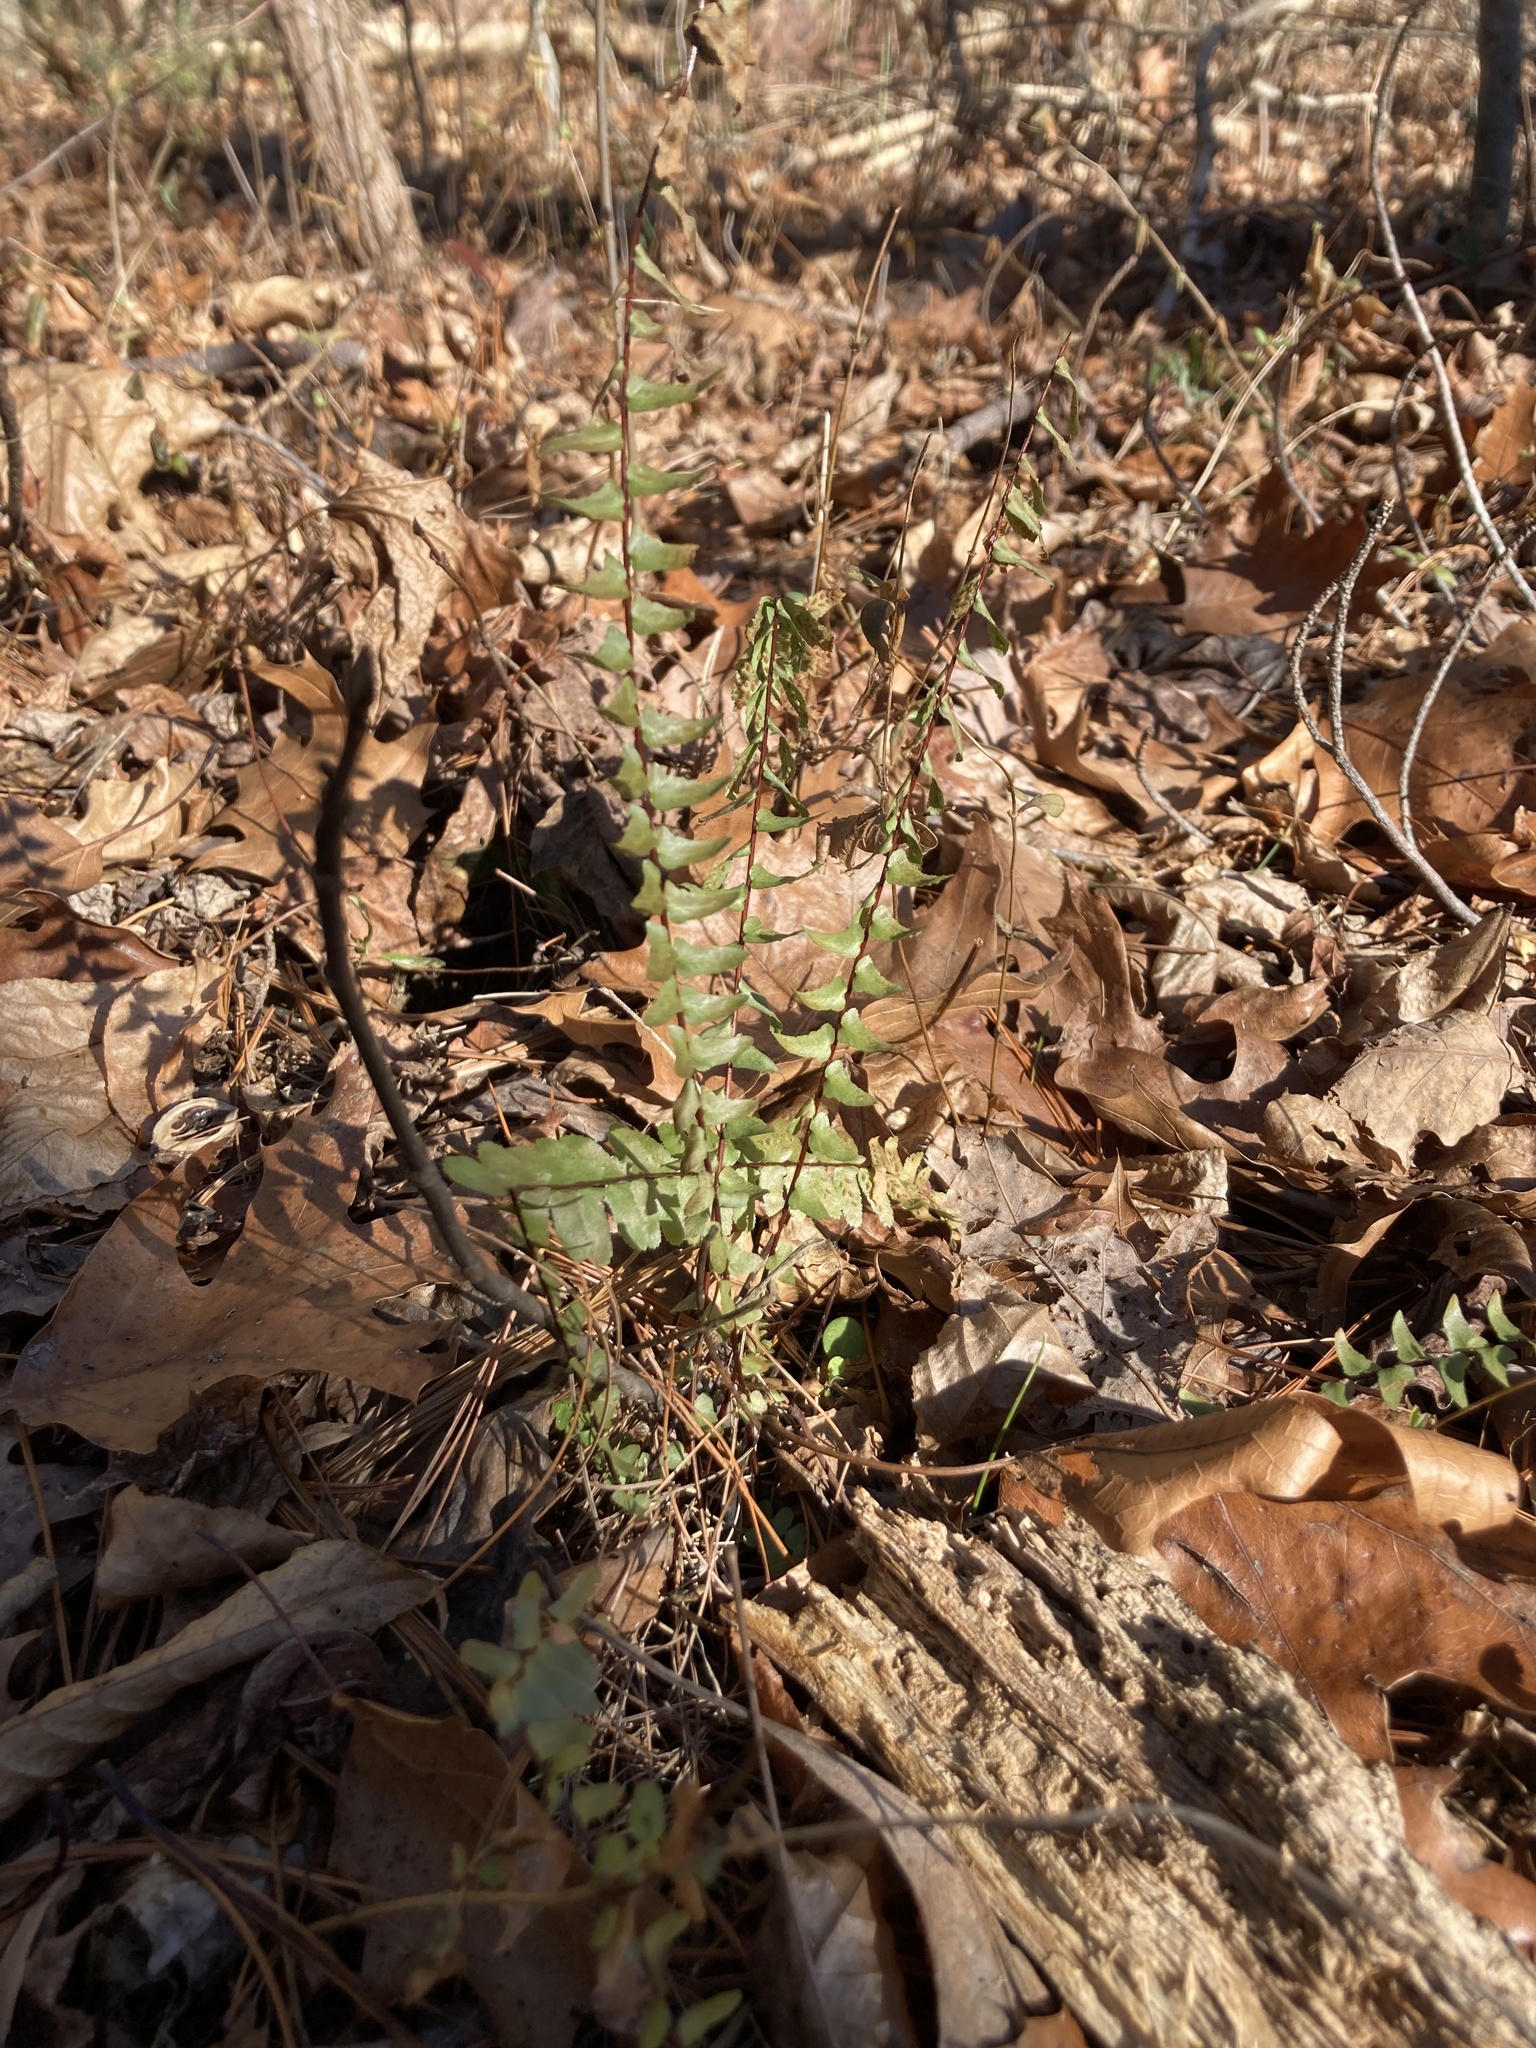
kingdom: Plantae
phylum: Tracheophyta
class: Polypodiopsida
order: Polypodiales
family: Aspleniaceae
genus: Asplenium
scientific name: Asplenium platyneuron
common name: Ebony spleenwort
